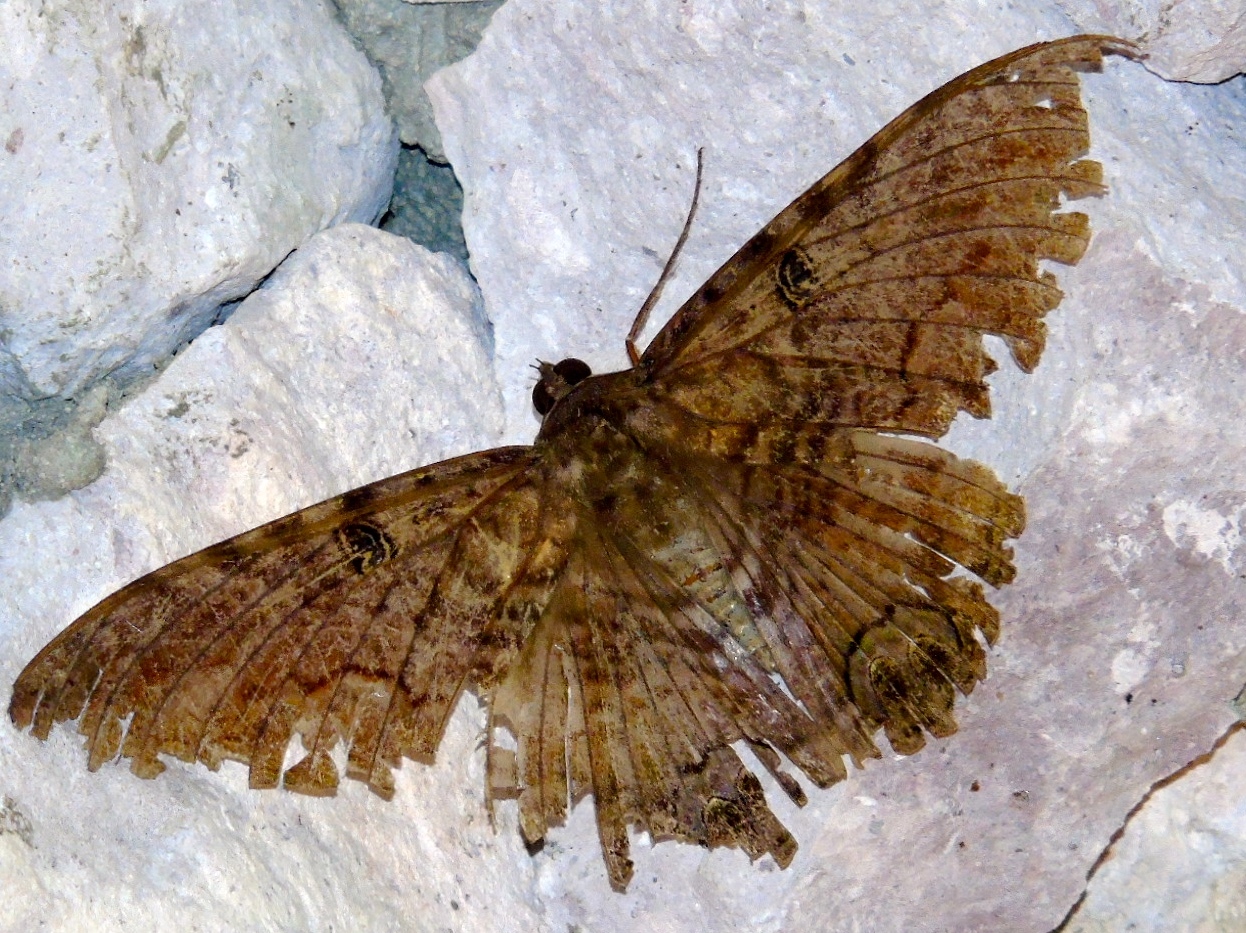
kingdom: Animalia
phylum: Arthropoda
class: Insecta
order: Lepidoptera
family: Erebidae
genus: Ascalapha
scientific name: Ascalapha odorata
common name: Black witch
